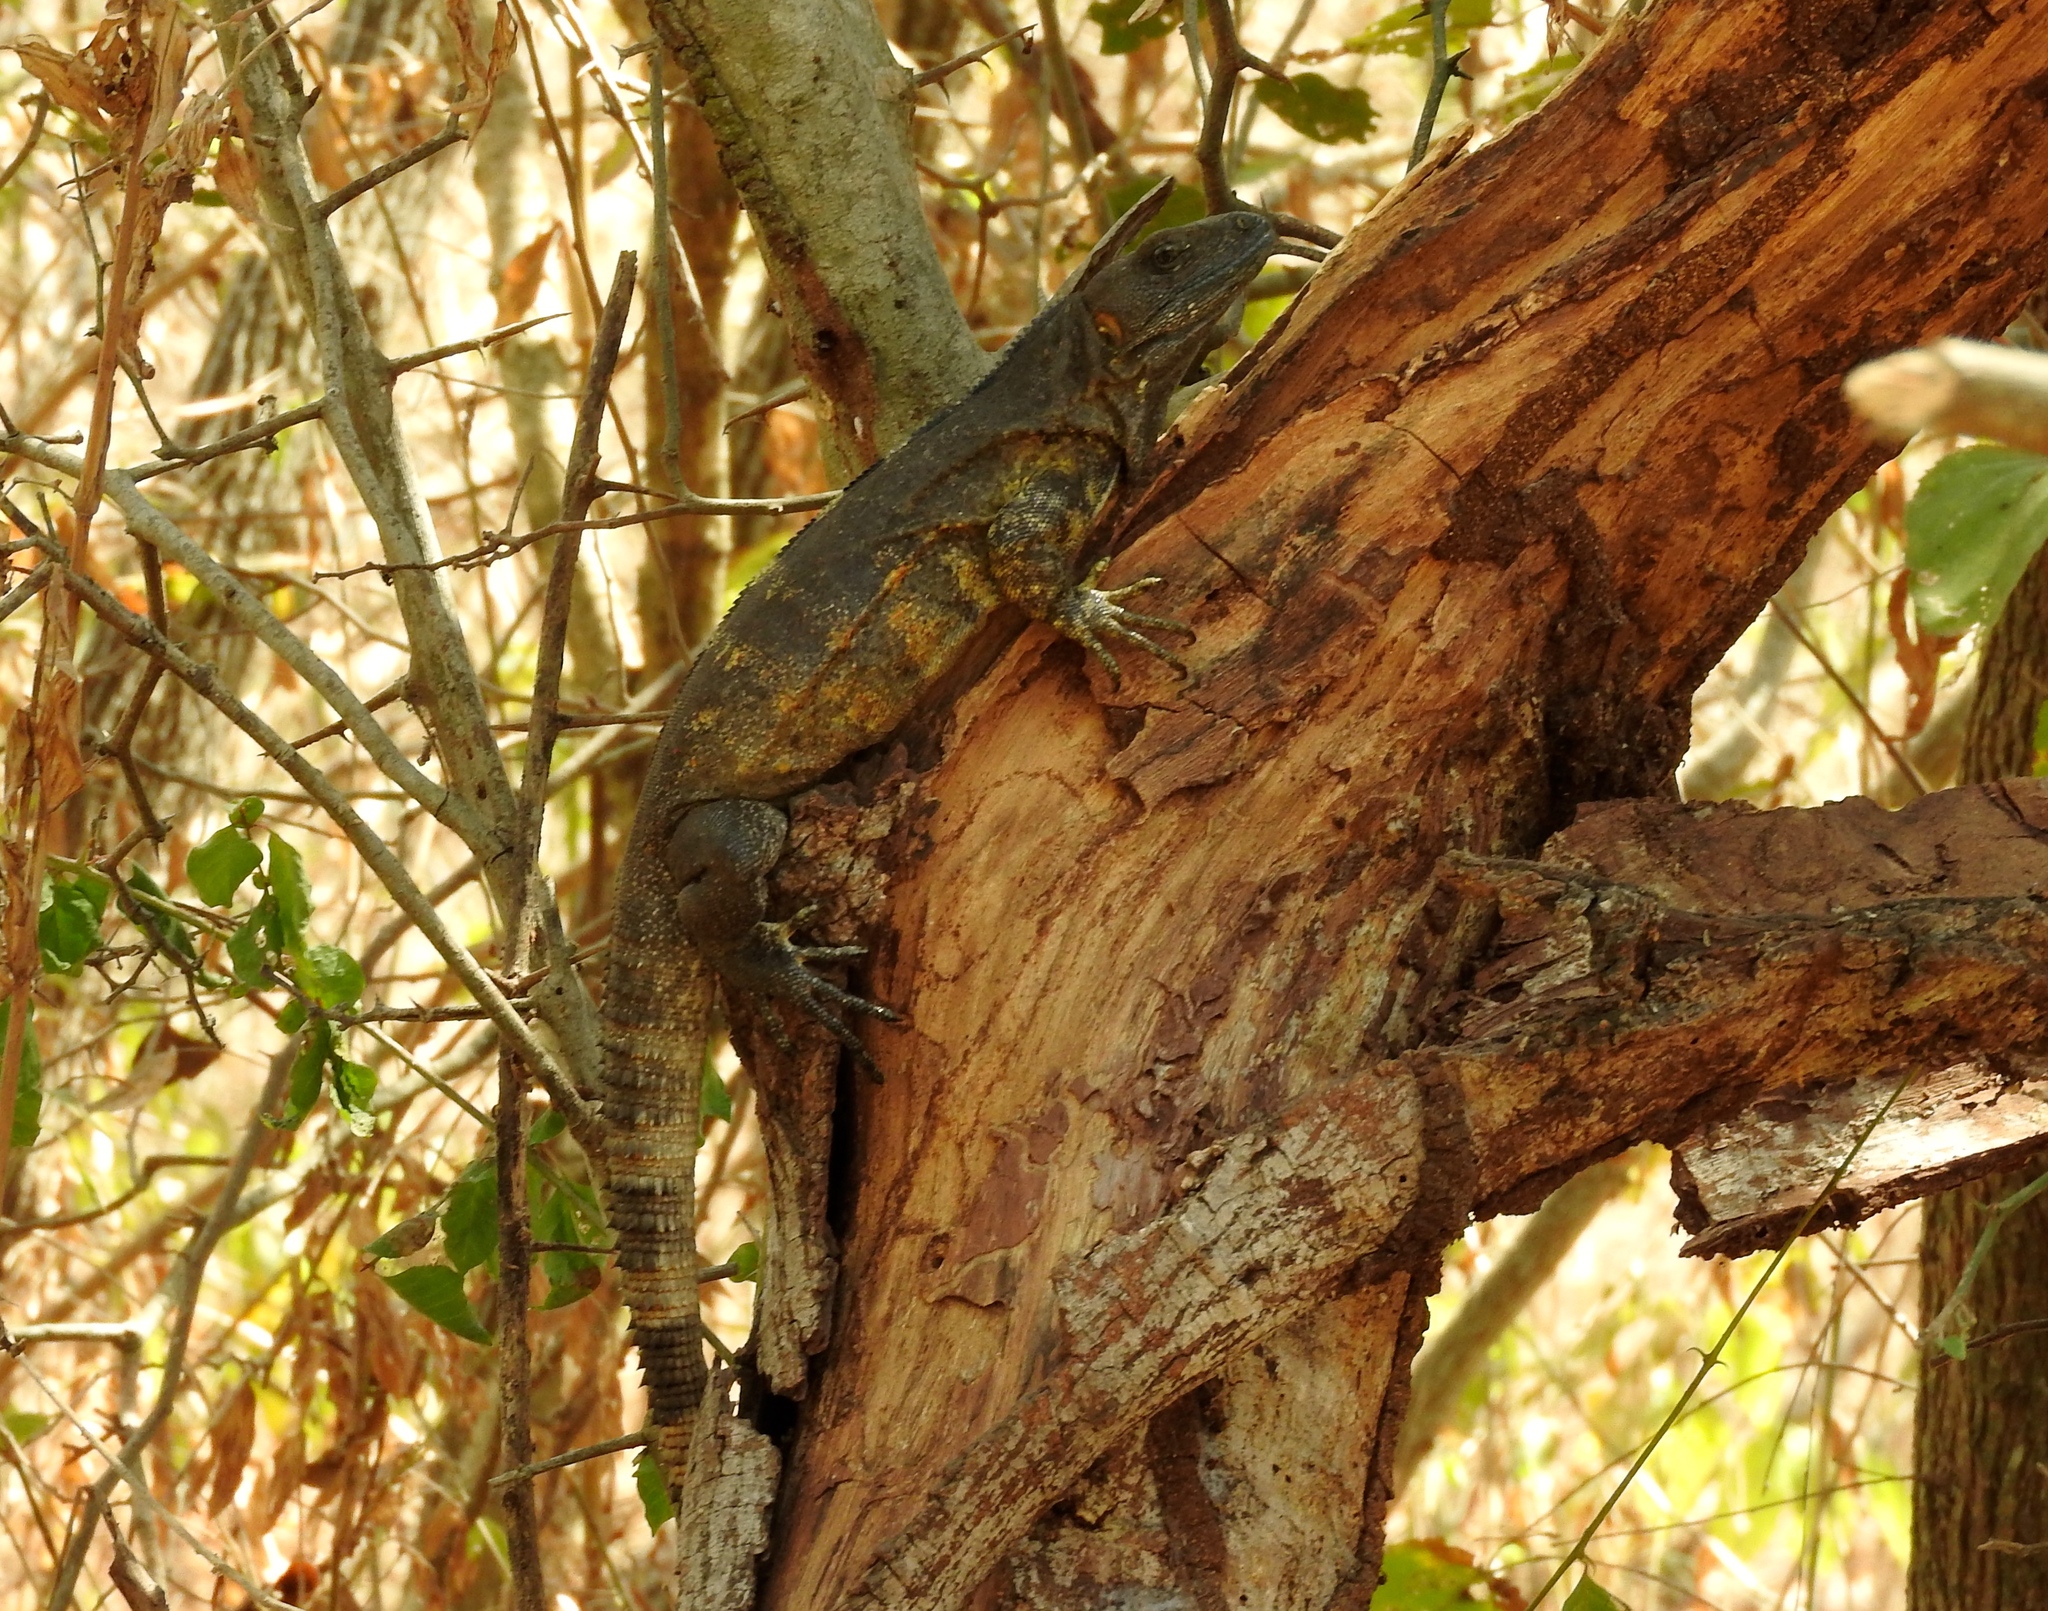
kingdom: Animalia
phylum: Chordata
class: Squamata
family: Iguanidae
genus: Ctenosaura
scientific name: Ctenosaura pectinata
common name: Guerreran spiny-tailed iguana
